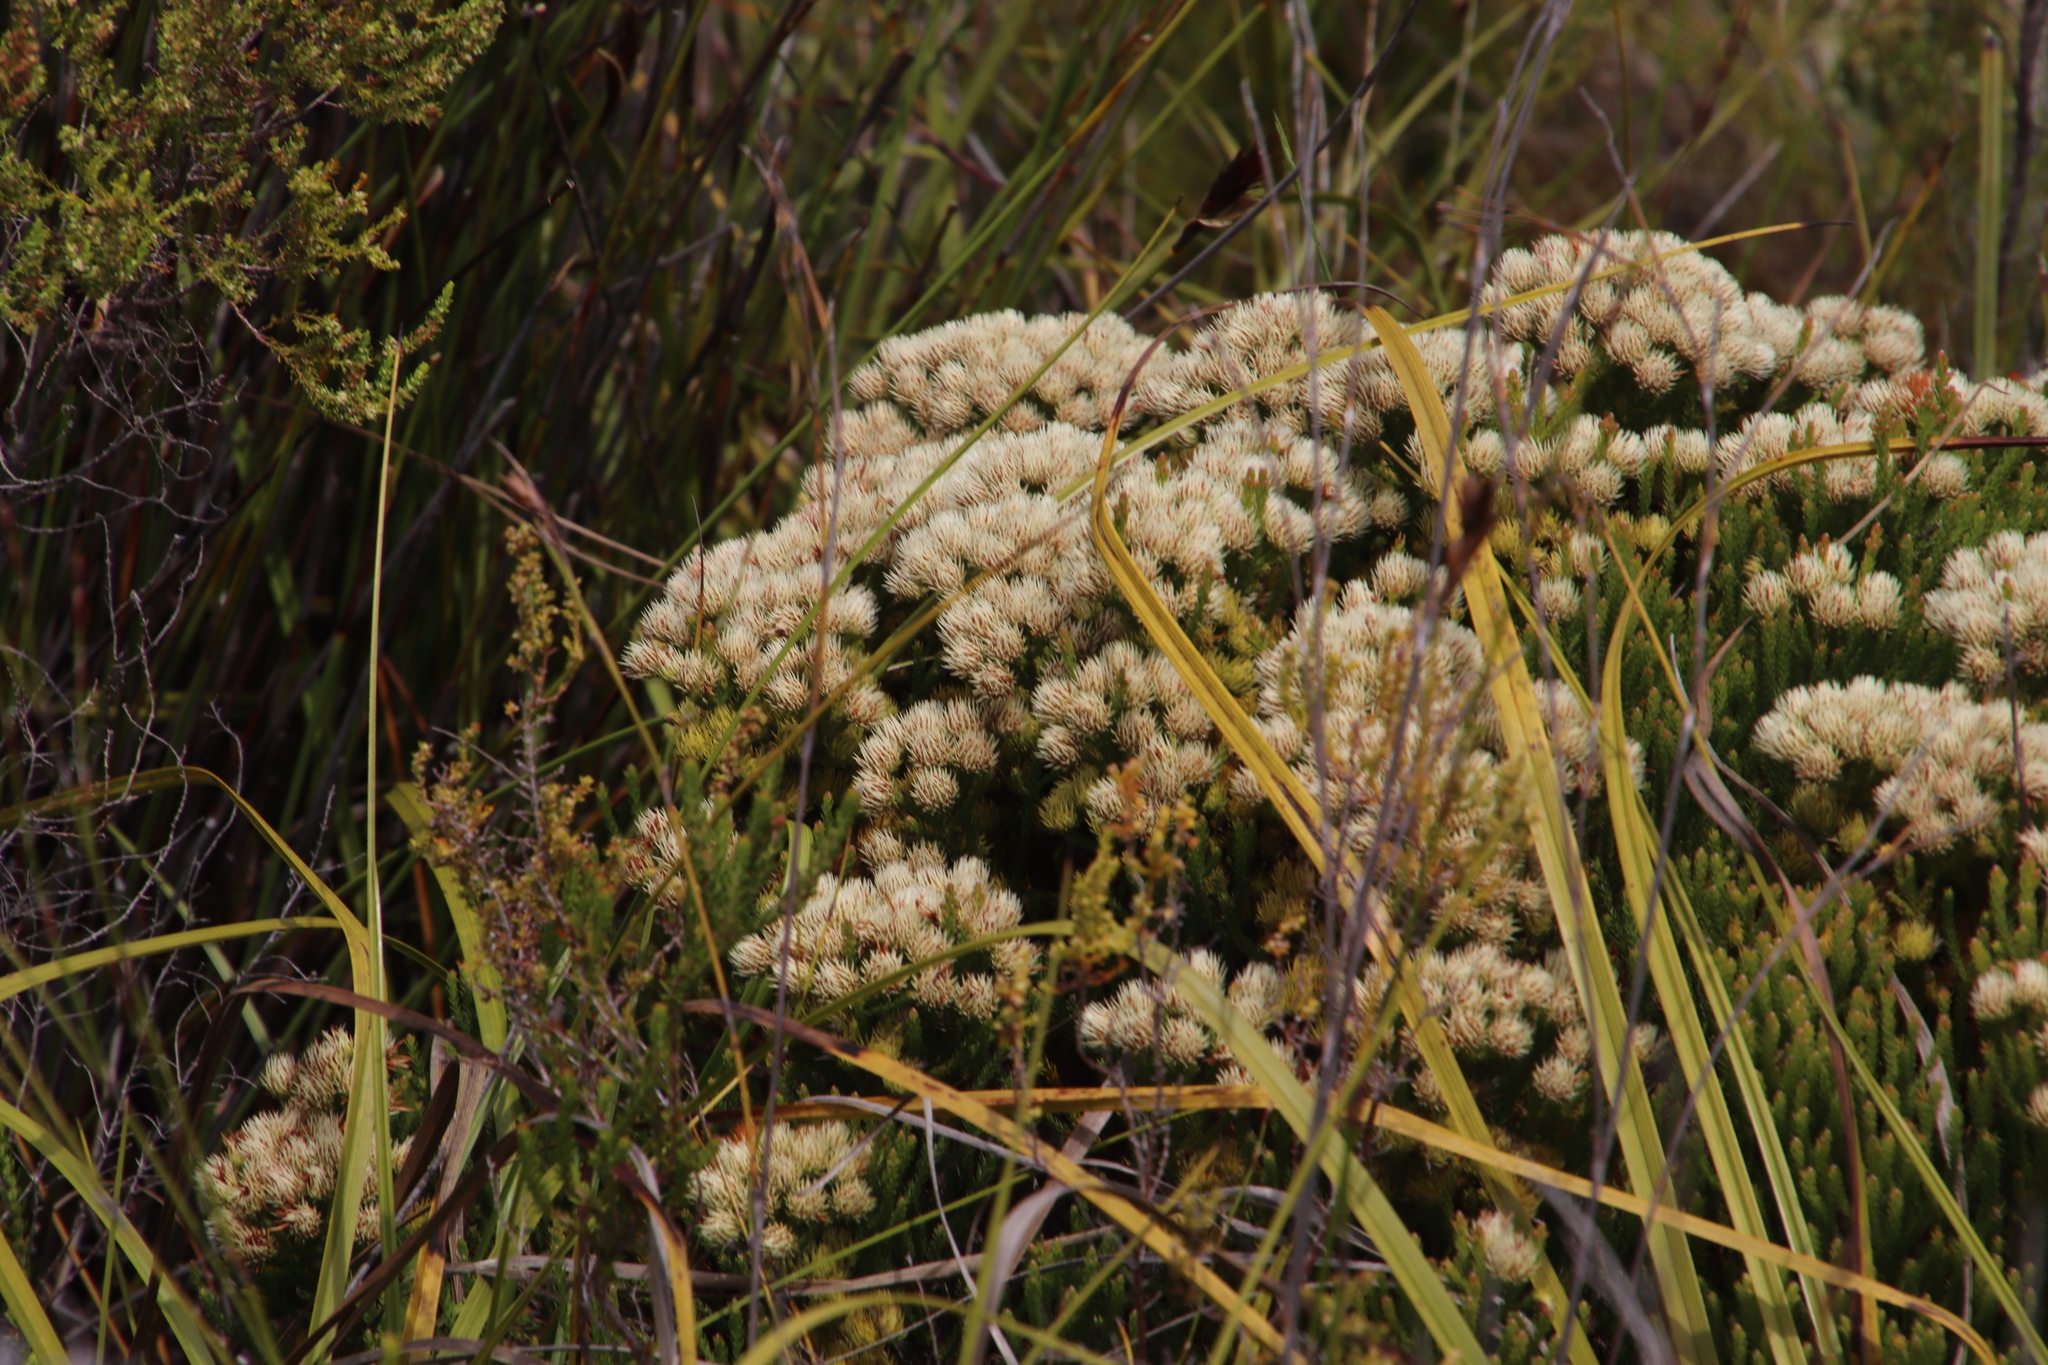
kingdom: Plantae
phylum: Tracheophyta
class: Magnoliopsida
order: Bruniales
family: Bruniaceae
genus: Brunia
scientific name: Brunia paleacea
